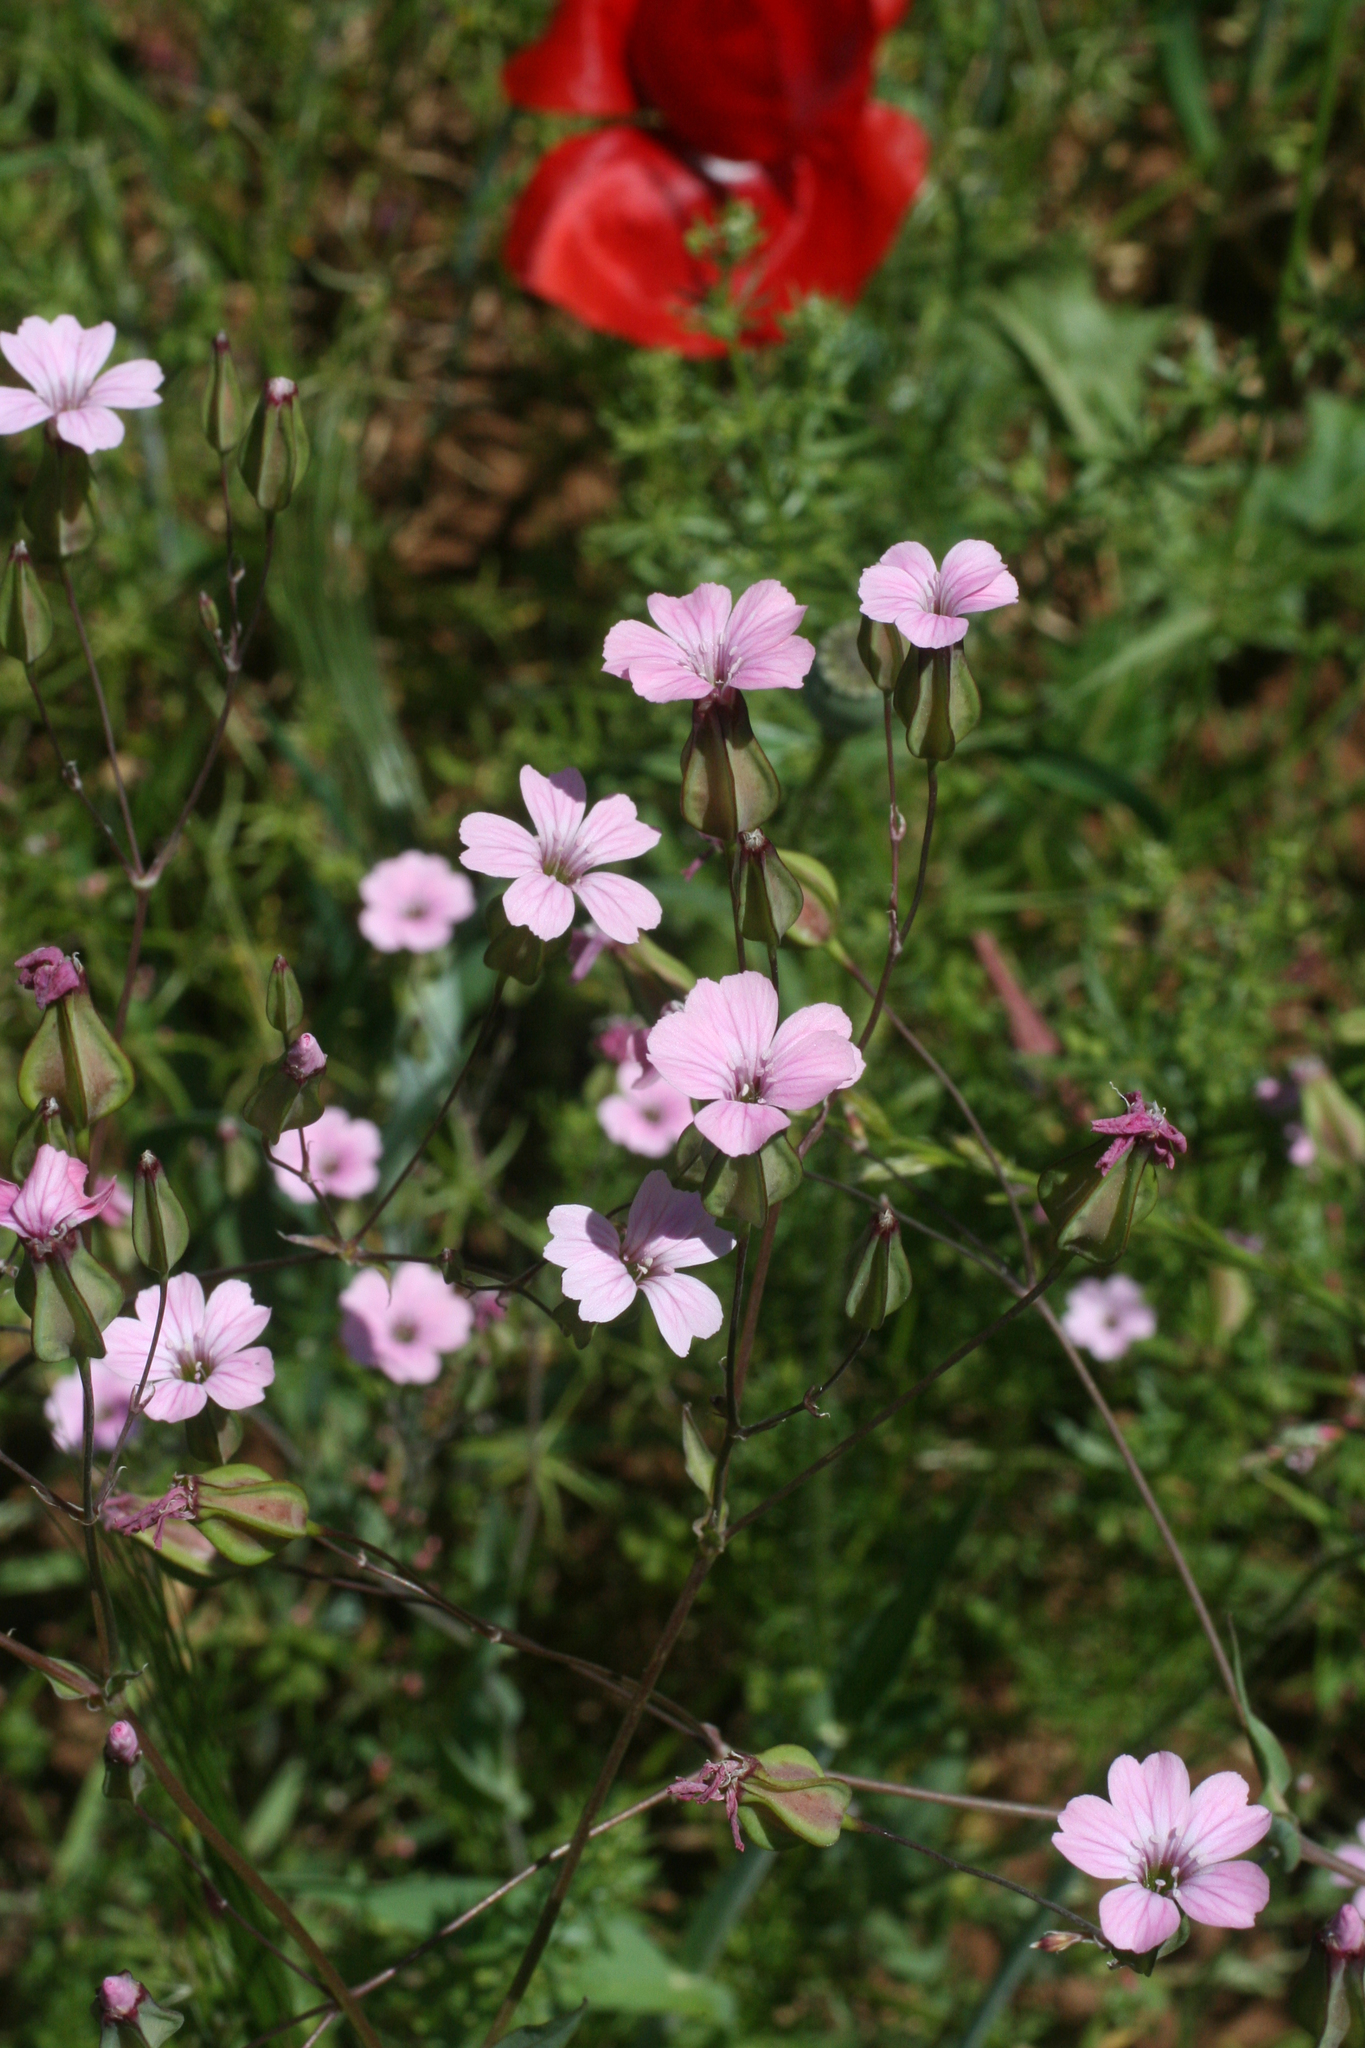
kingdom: Plantae
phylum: Tracheophyta
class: Magnoliopsida
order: Caryophyllales
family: Caryophyllaceae
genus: Gypsophila
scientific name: Gypsophila vaccaria
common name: Cow soapwort
